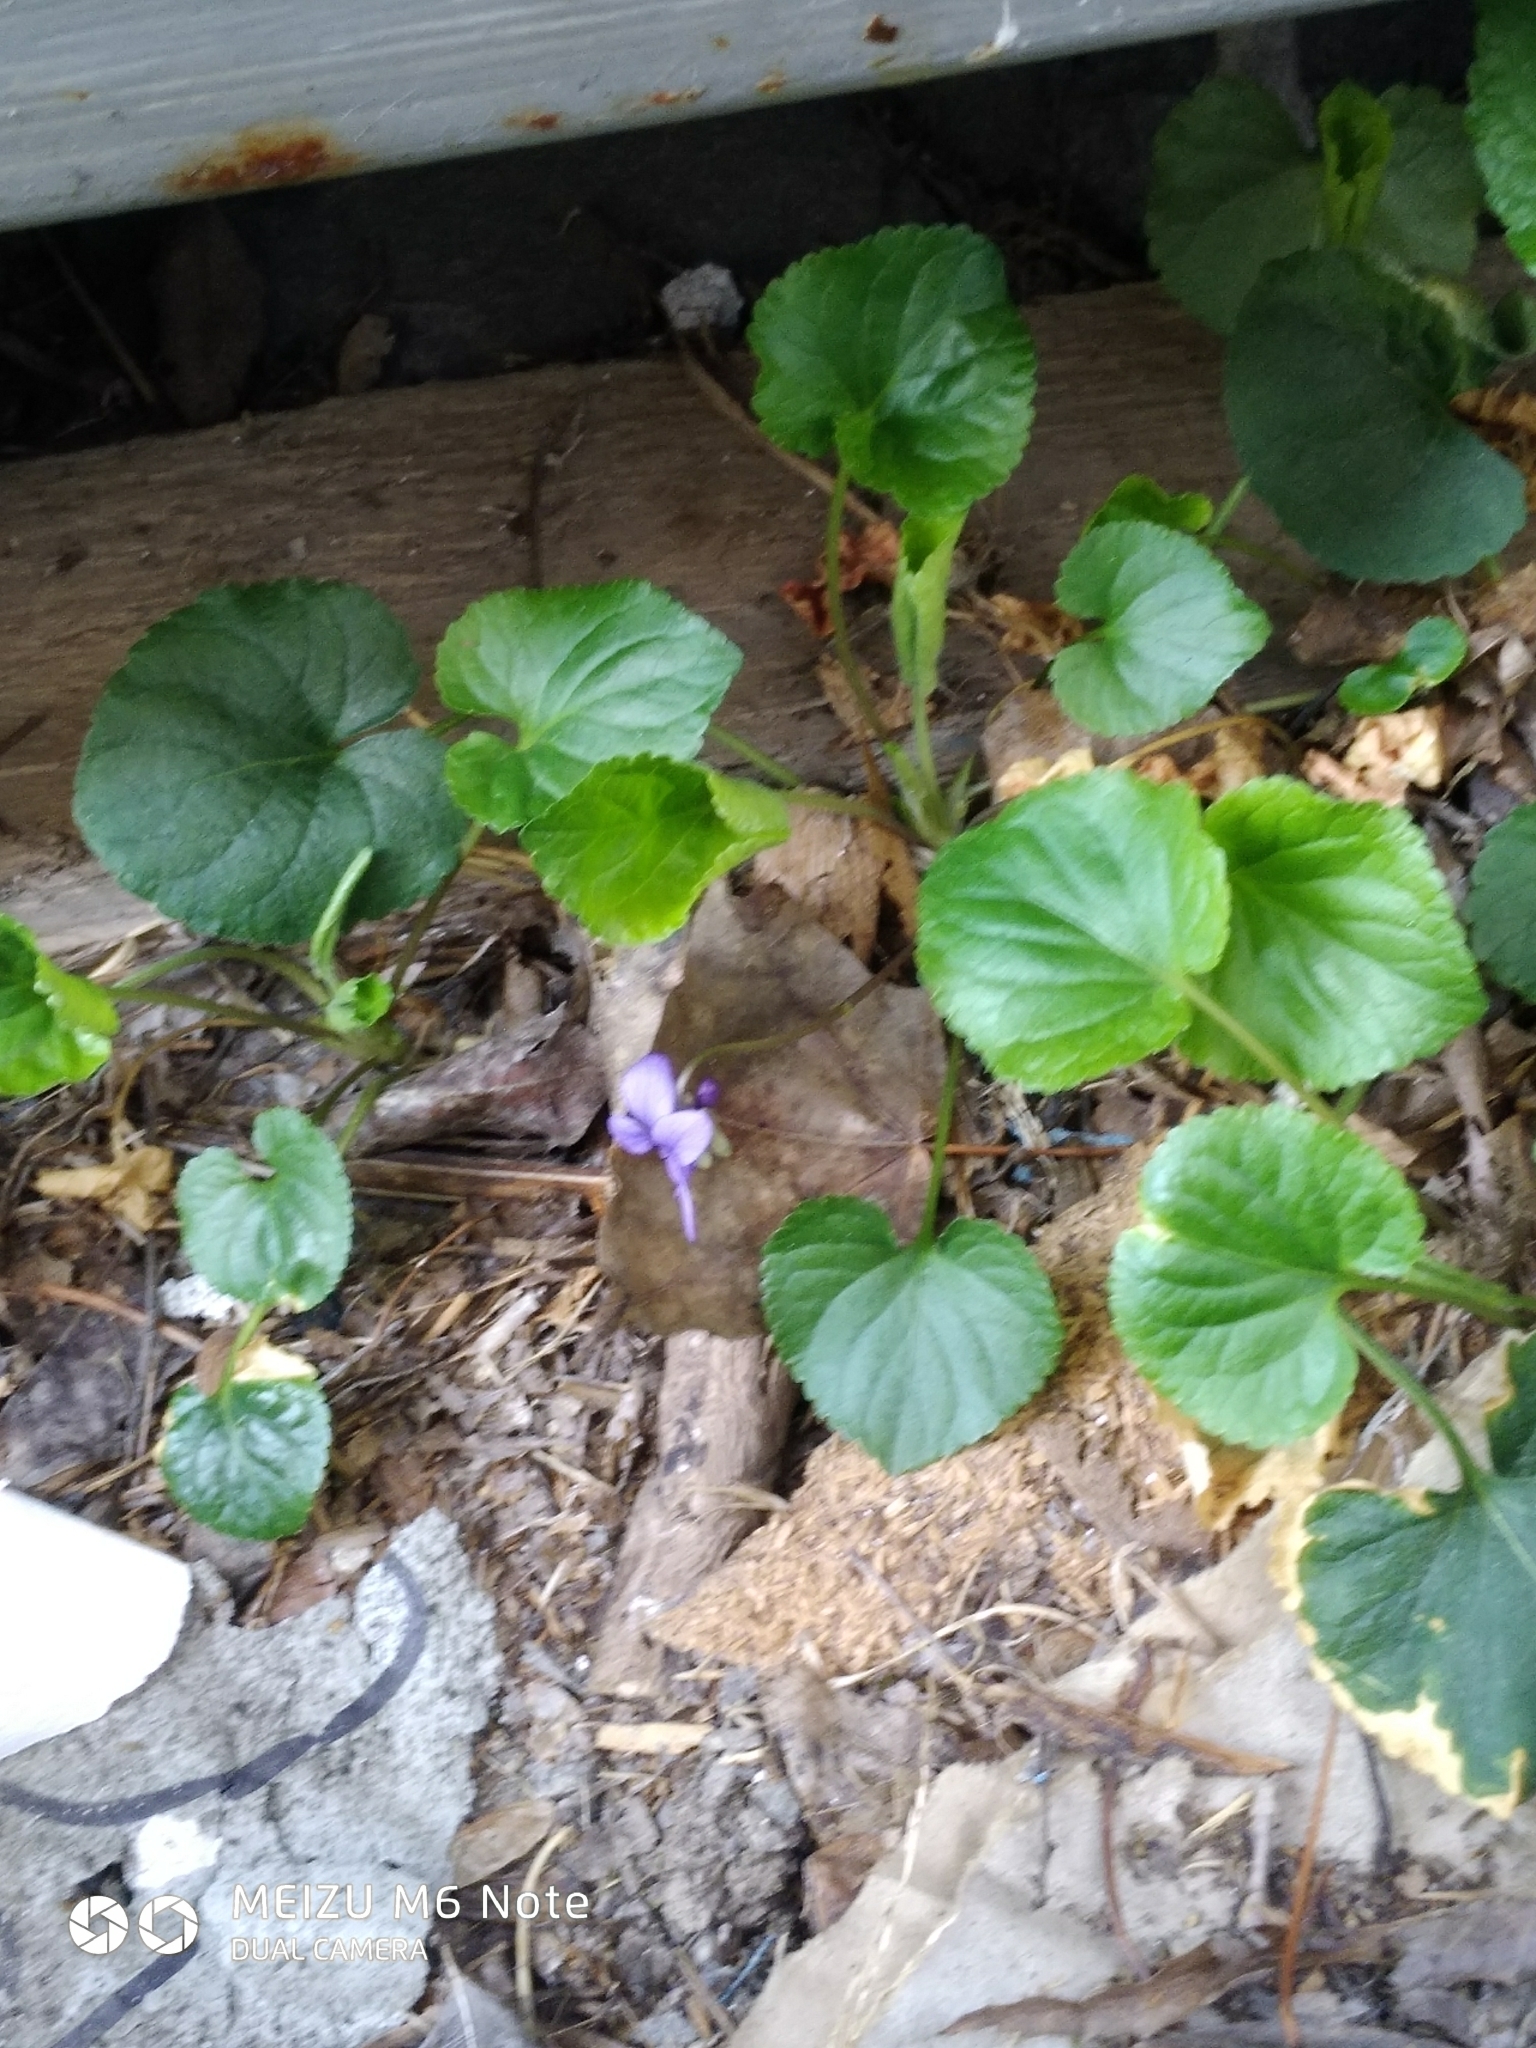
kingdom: Plantae
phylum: Tracheophyta
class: Magnoliopsida
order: Malpighiales
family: Violaceae
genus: Viola
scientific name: Viola odorata
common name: Sweet violet
